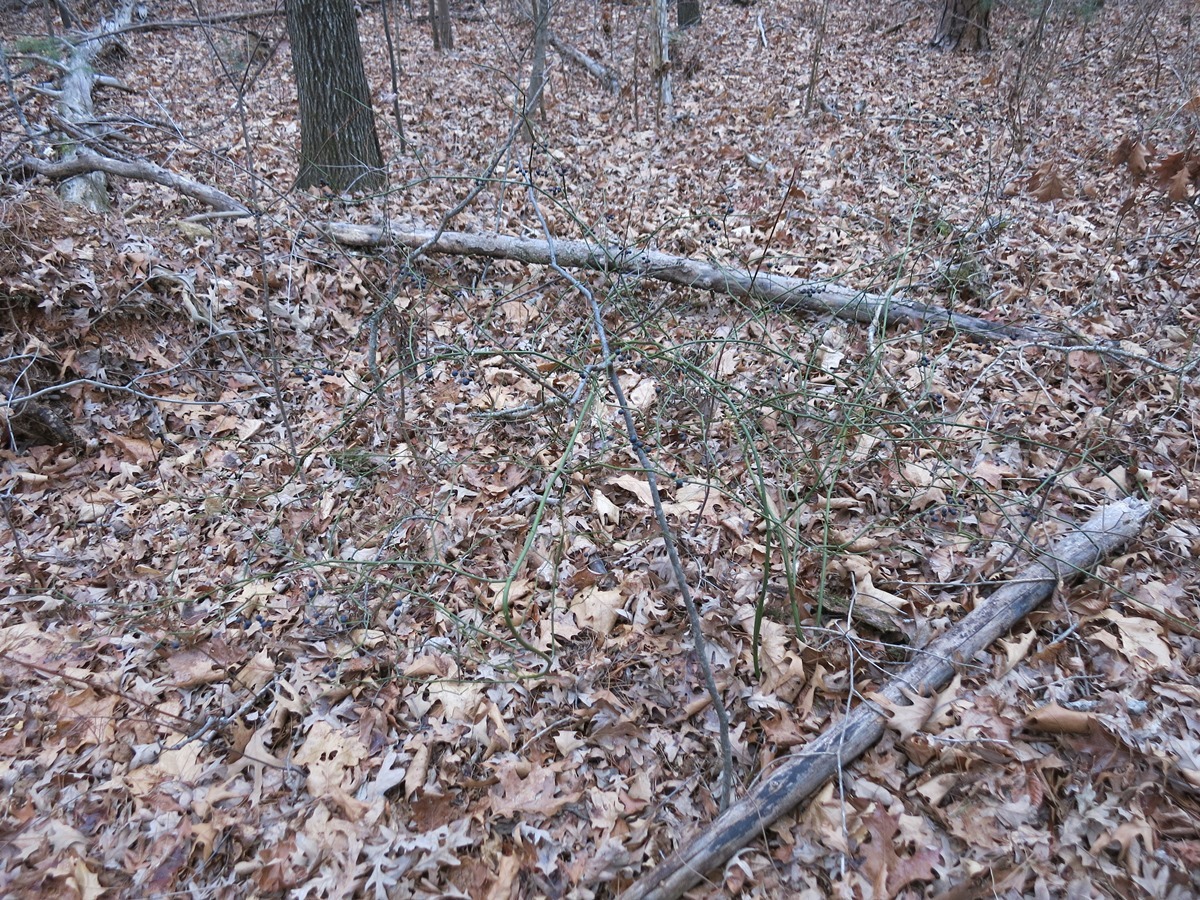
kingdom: Plantae
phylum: Tracheophyta
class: Liliopsida
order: Liliales
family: Smilacaceae
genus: Smilax
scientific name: Smilax rotundifolia
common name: Bullbriar
